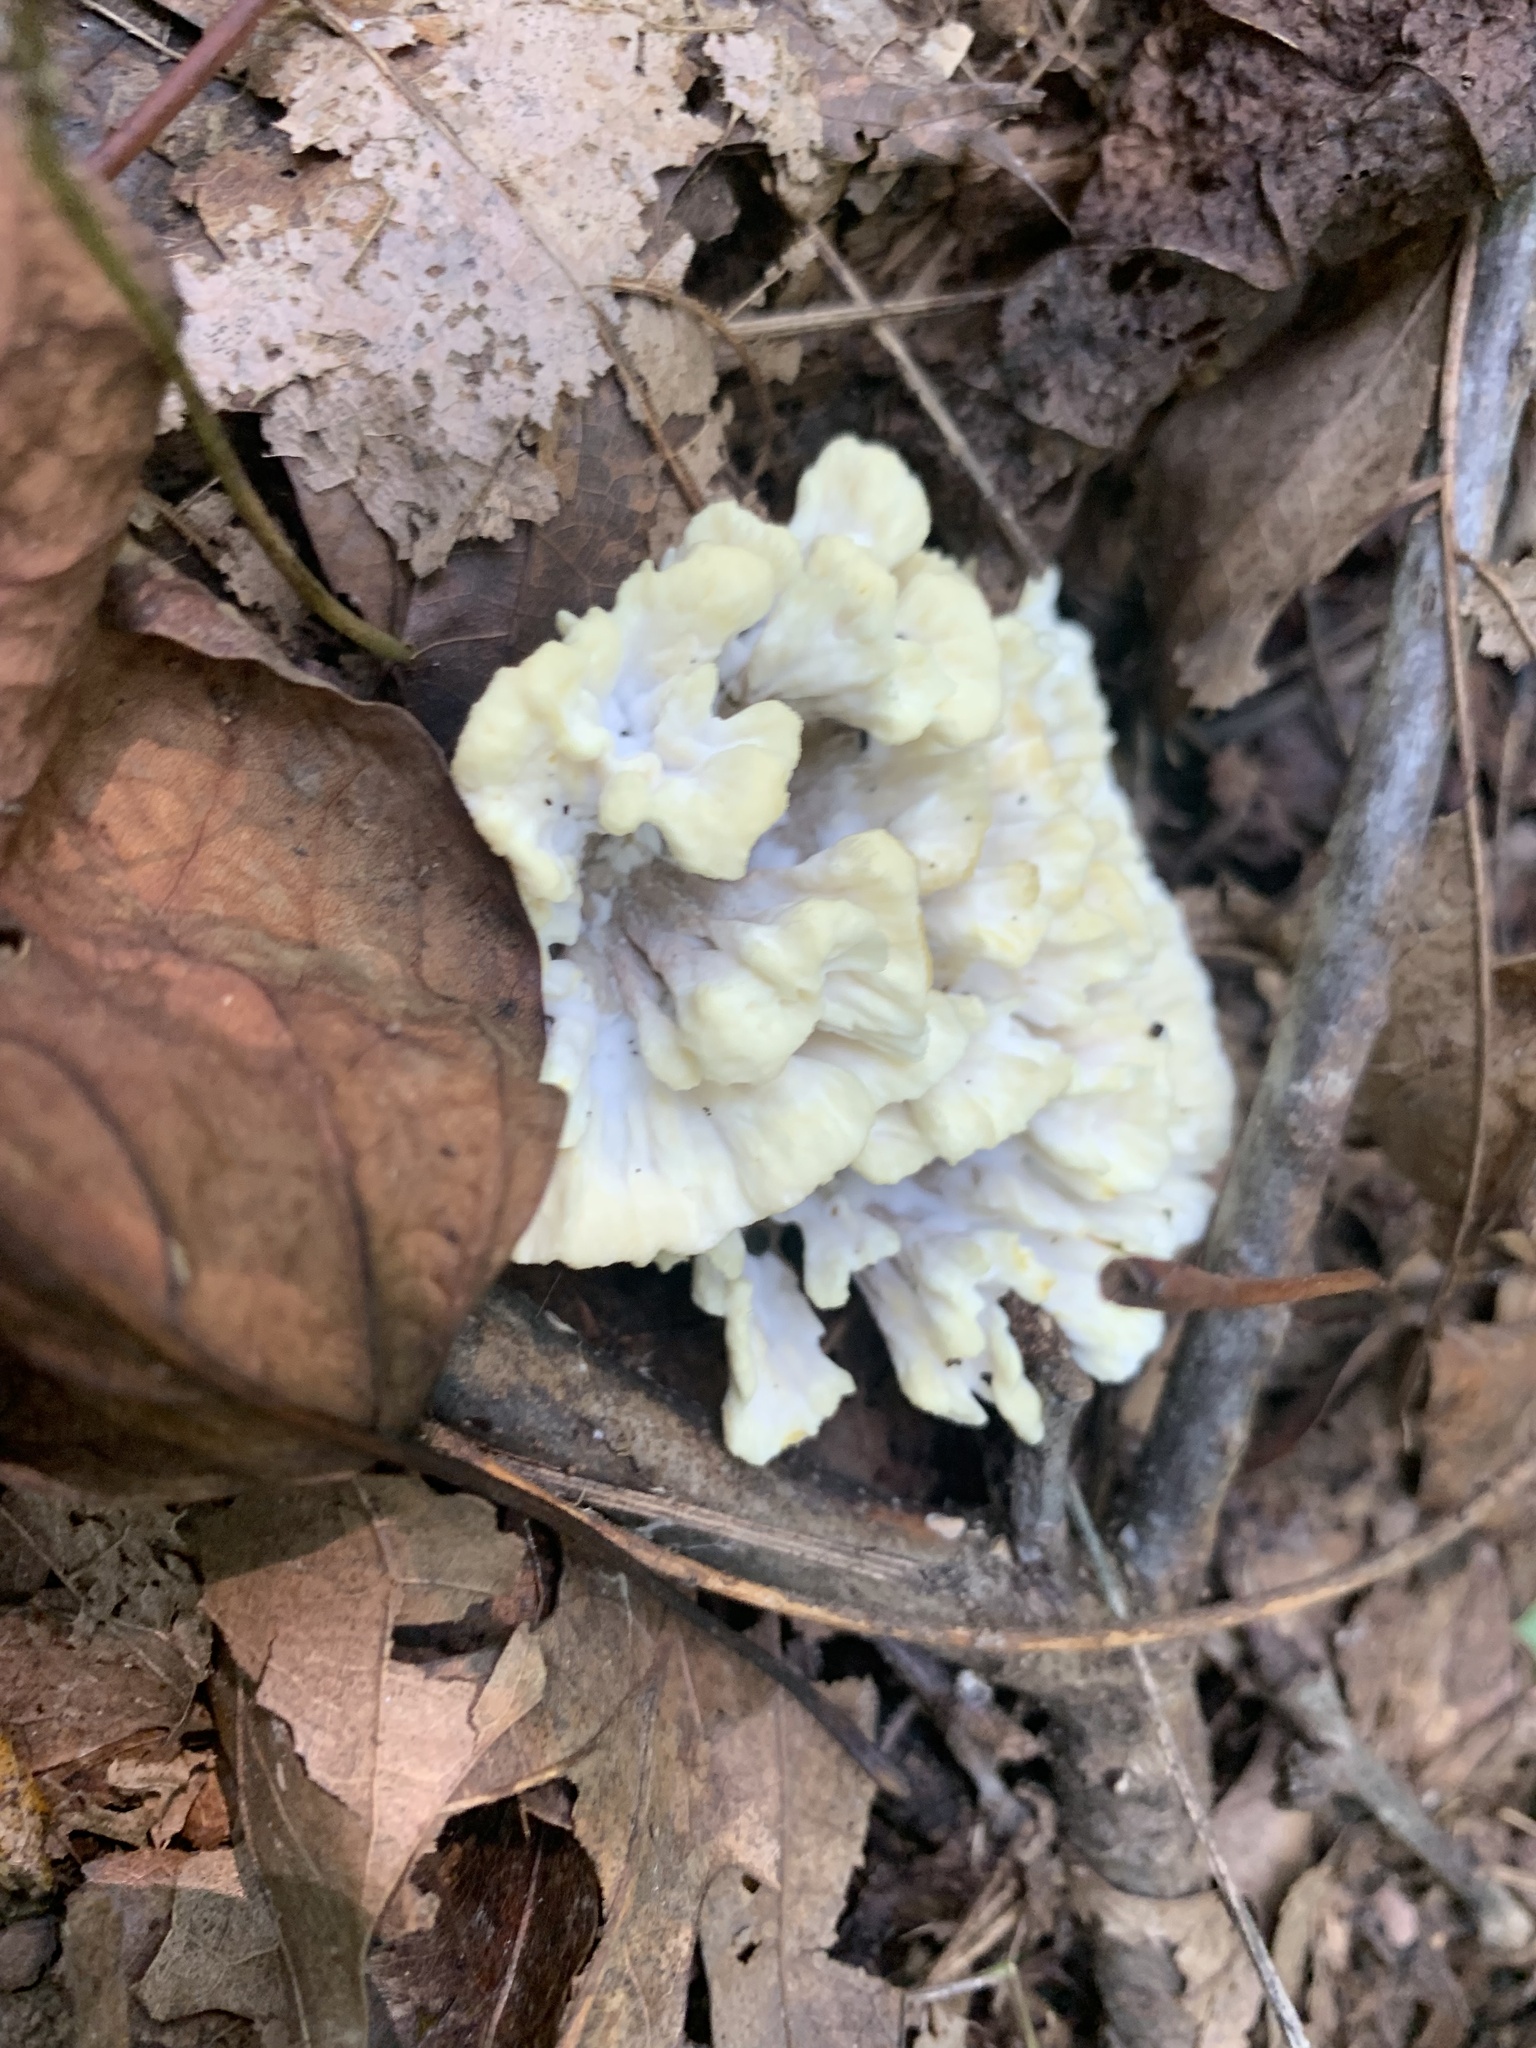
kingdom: Fungi
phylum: Basidiomycota
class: Agaricomycetes
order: Thelephorales
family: Thelephoraceae
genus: Thelephora
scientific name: Thelephora vialis
